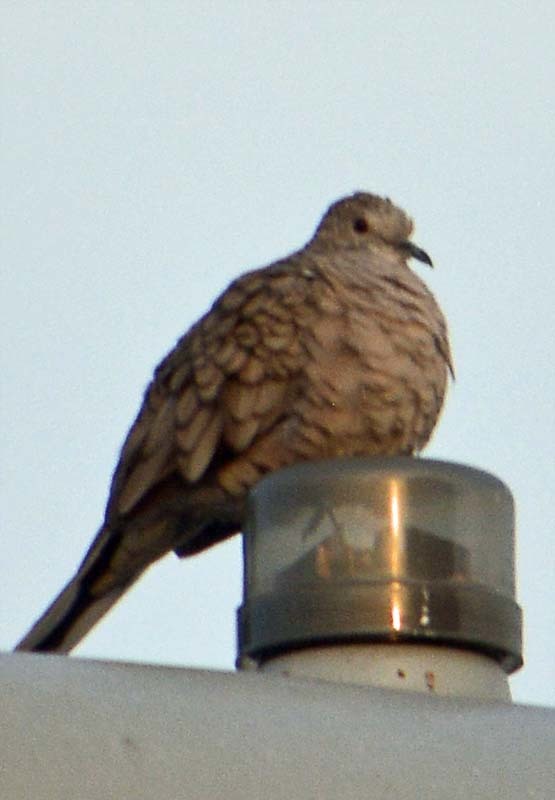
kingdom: Animalia
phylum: Chordata
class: Aves
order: Columbiformes
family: Columbidae
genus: Columbina
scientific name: Columbina inca
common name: Inca dove
